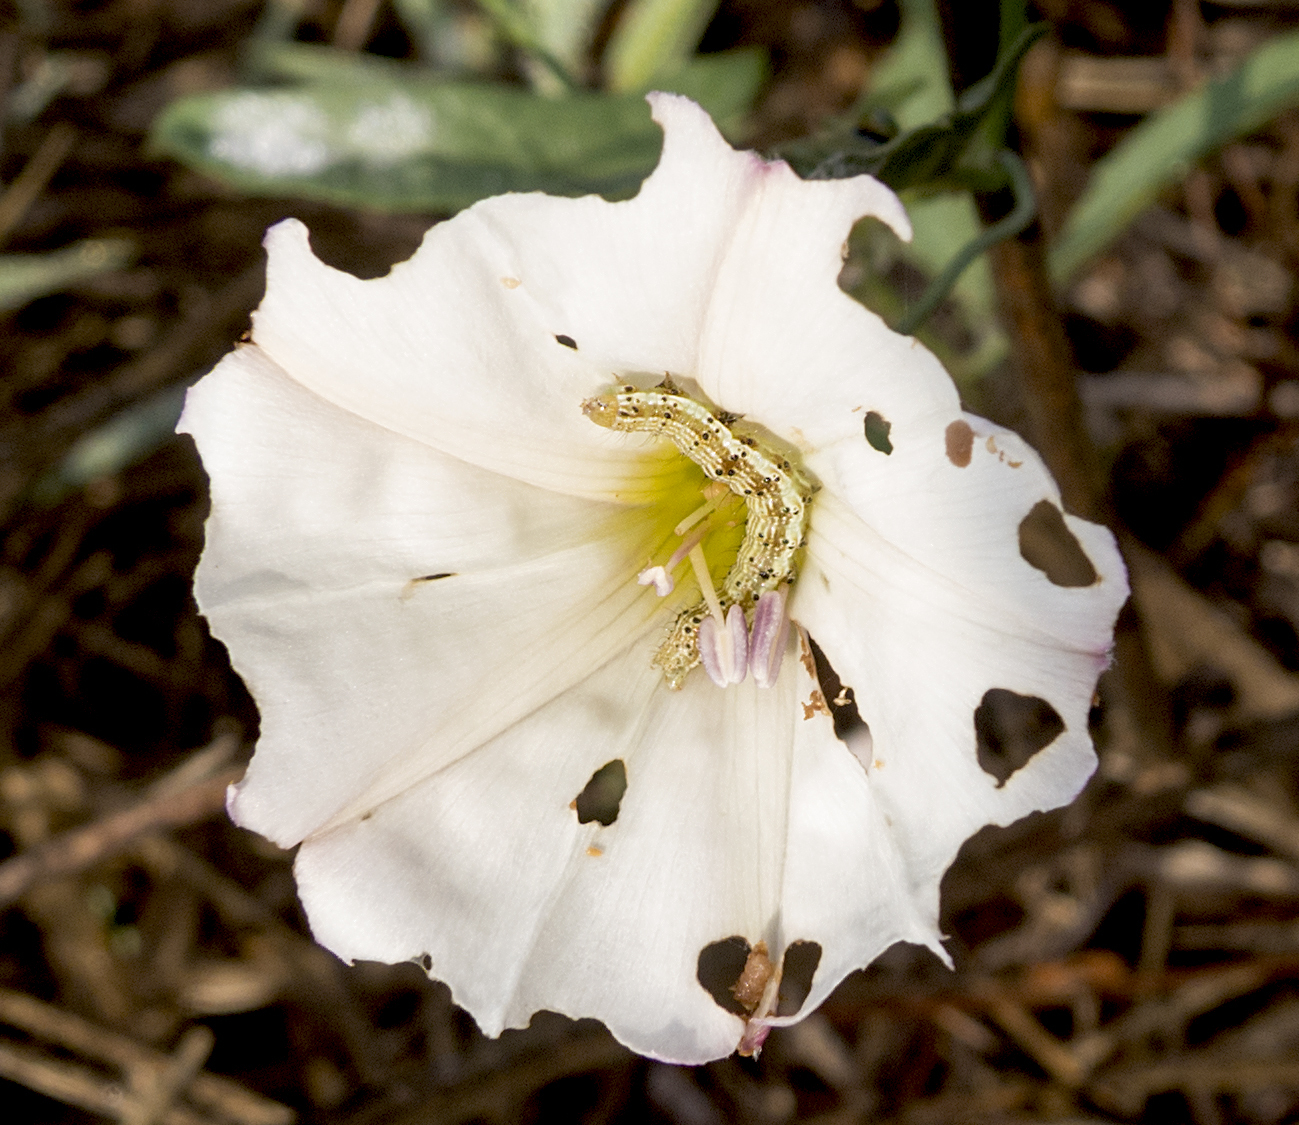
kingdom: Animalia
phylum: Arthropoda
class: Insecta
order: Lepidoptera
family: Noctuidae
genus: Helicoverpa
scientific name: Helicoverpa armigera
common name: Cotton bollworm
